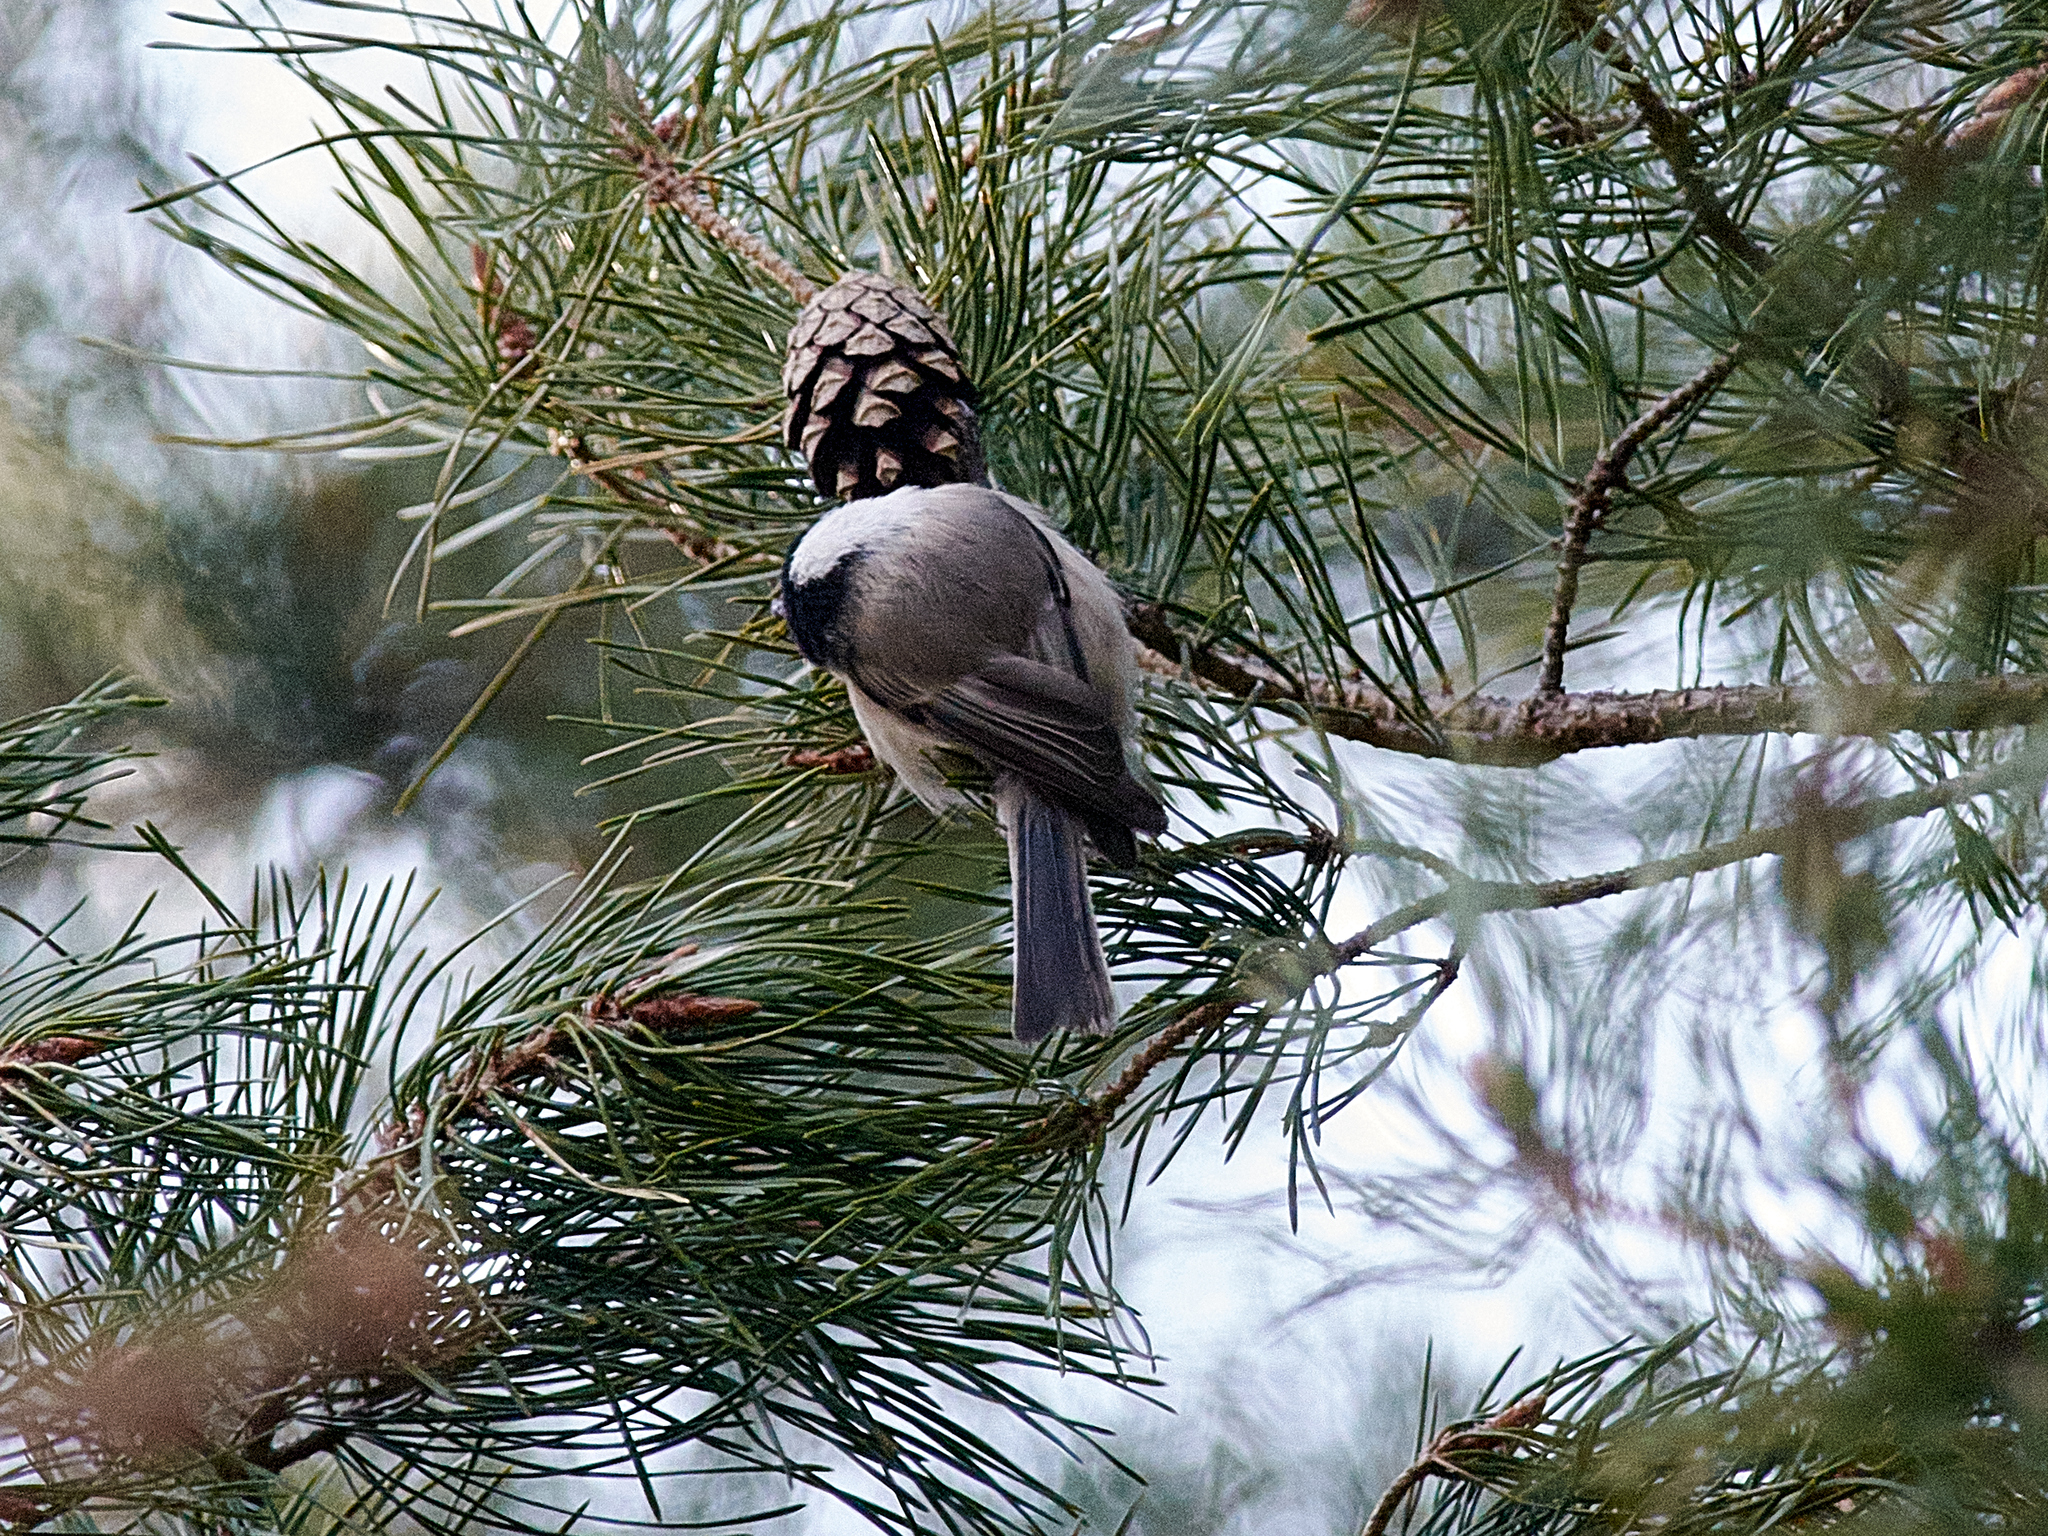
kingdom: Animalia
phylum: Chordata
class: Aves
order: Passeriformes
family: Paridae
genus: Poecile
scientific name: Poecile montanus
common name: Willow tit
